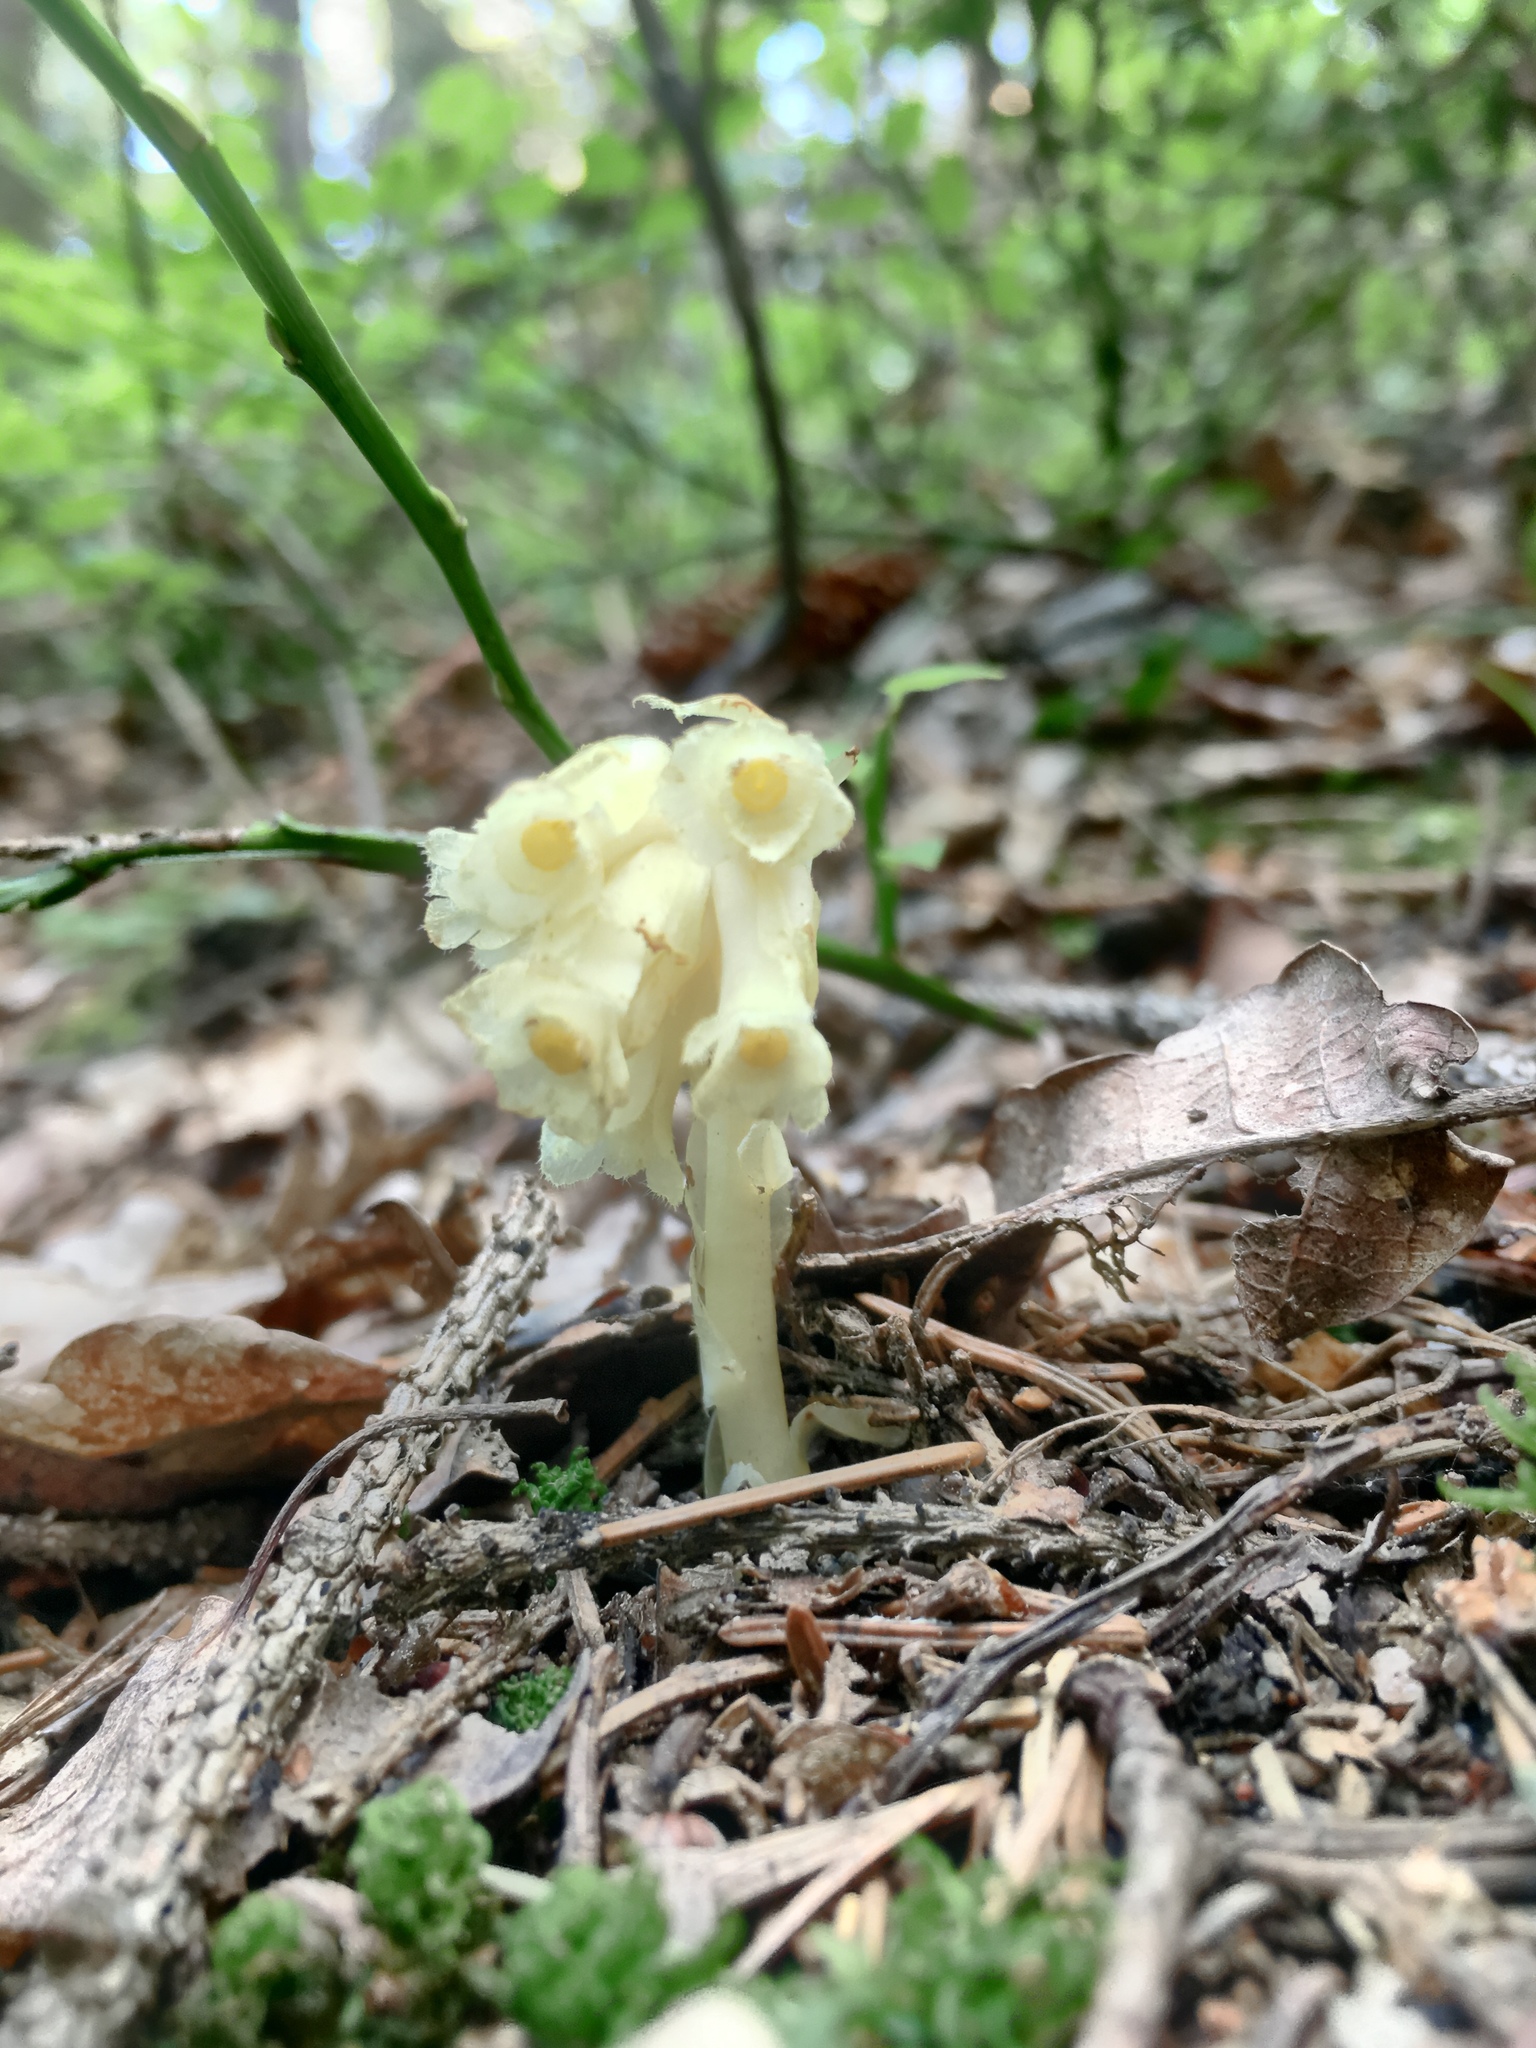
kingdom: Plantae
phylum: Tracheophyta
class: Magnoliopsida
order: Ericales
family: Ericaceae
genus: Hypopitys
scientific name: Hypopitys monotropa
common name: Yellow bird's-nest
